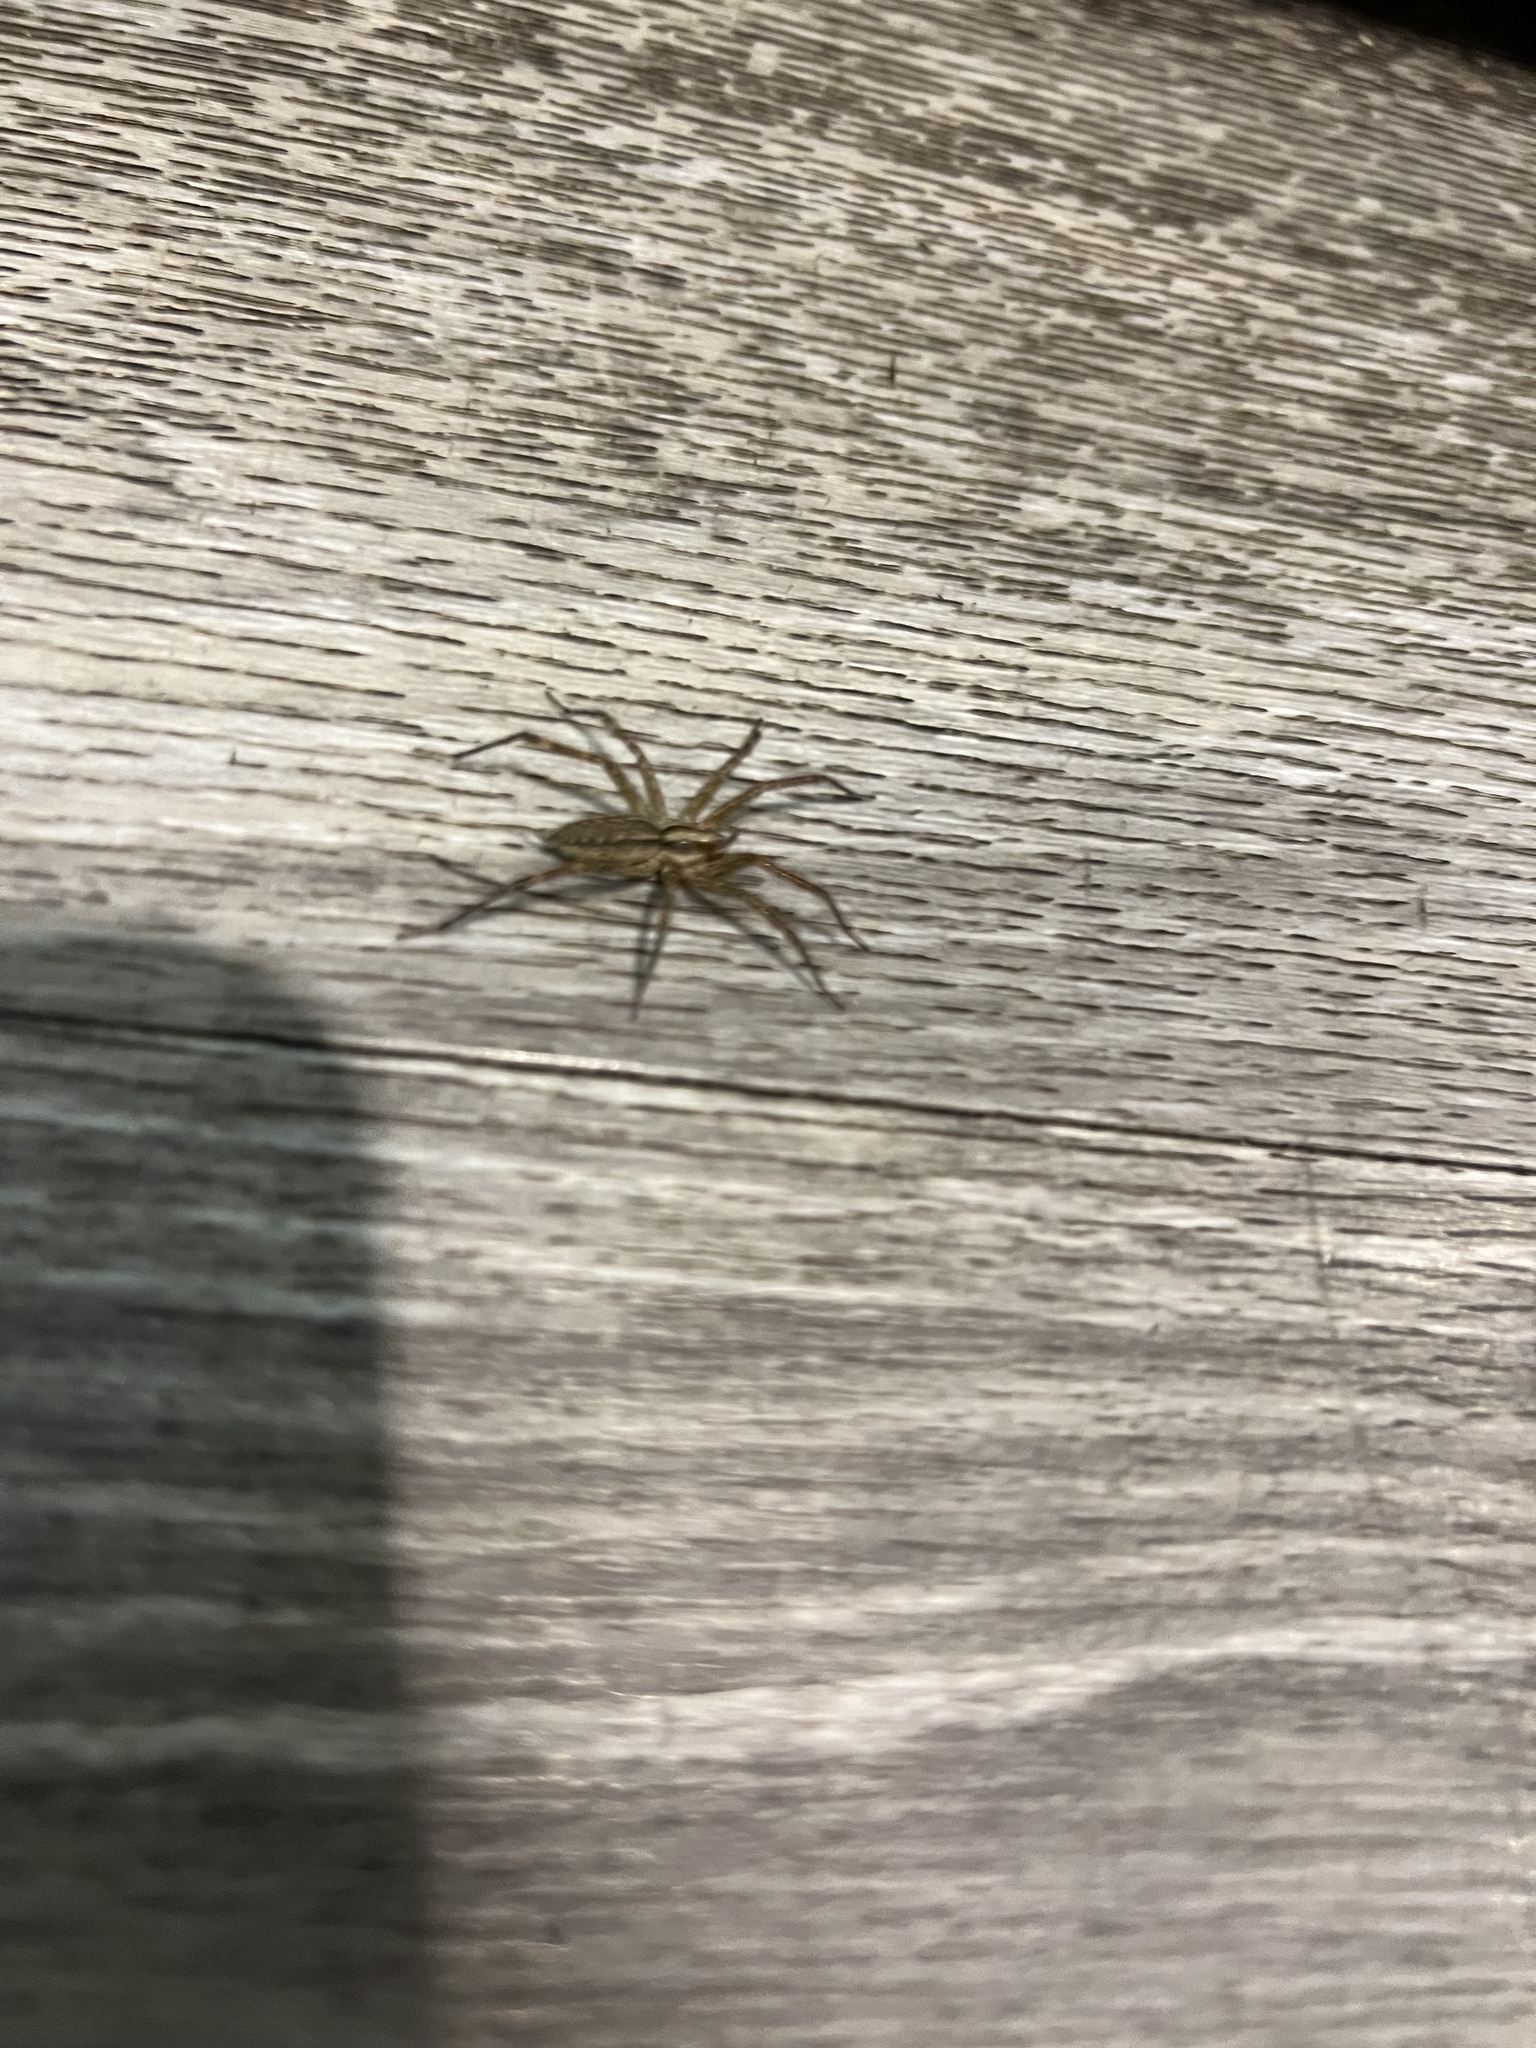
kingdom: Animalia
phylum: Arthropoda
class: Arachnida
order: Araneae
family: Agelenidae
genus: Agelenopsis
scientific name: Agelenopsis
